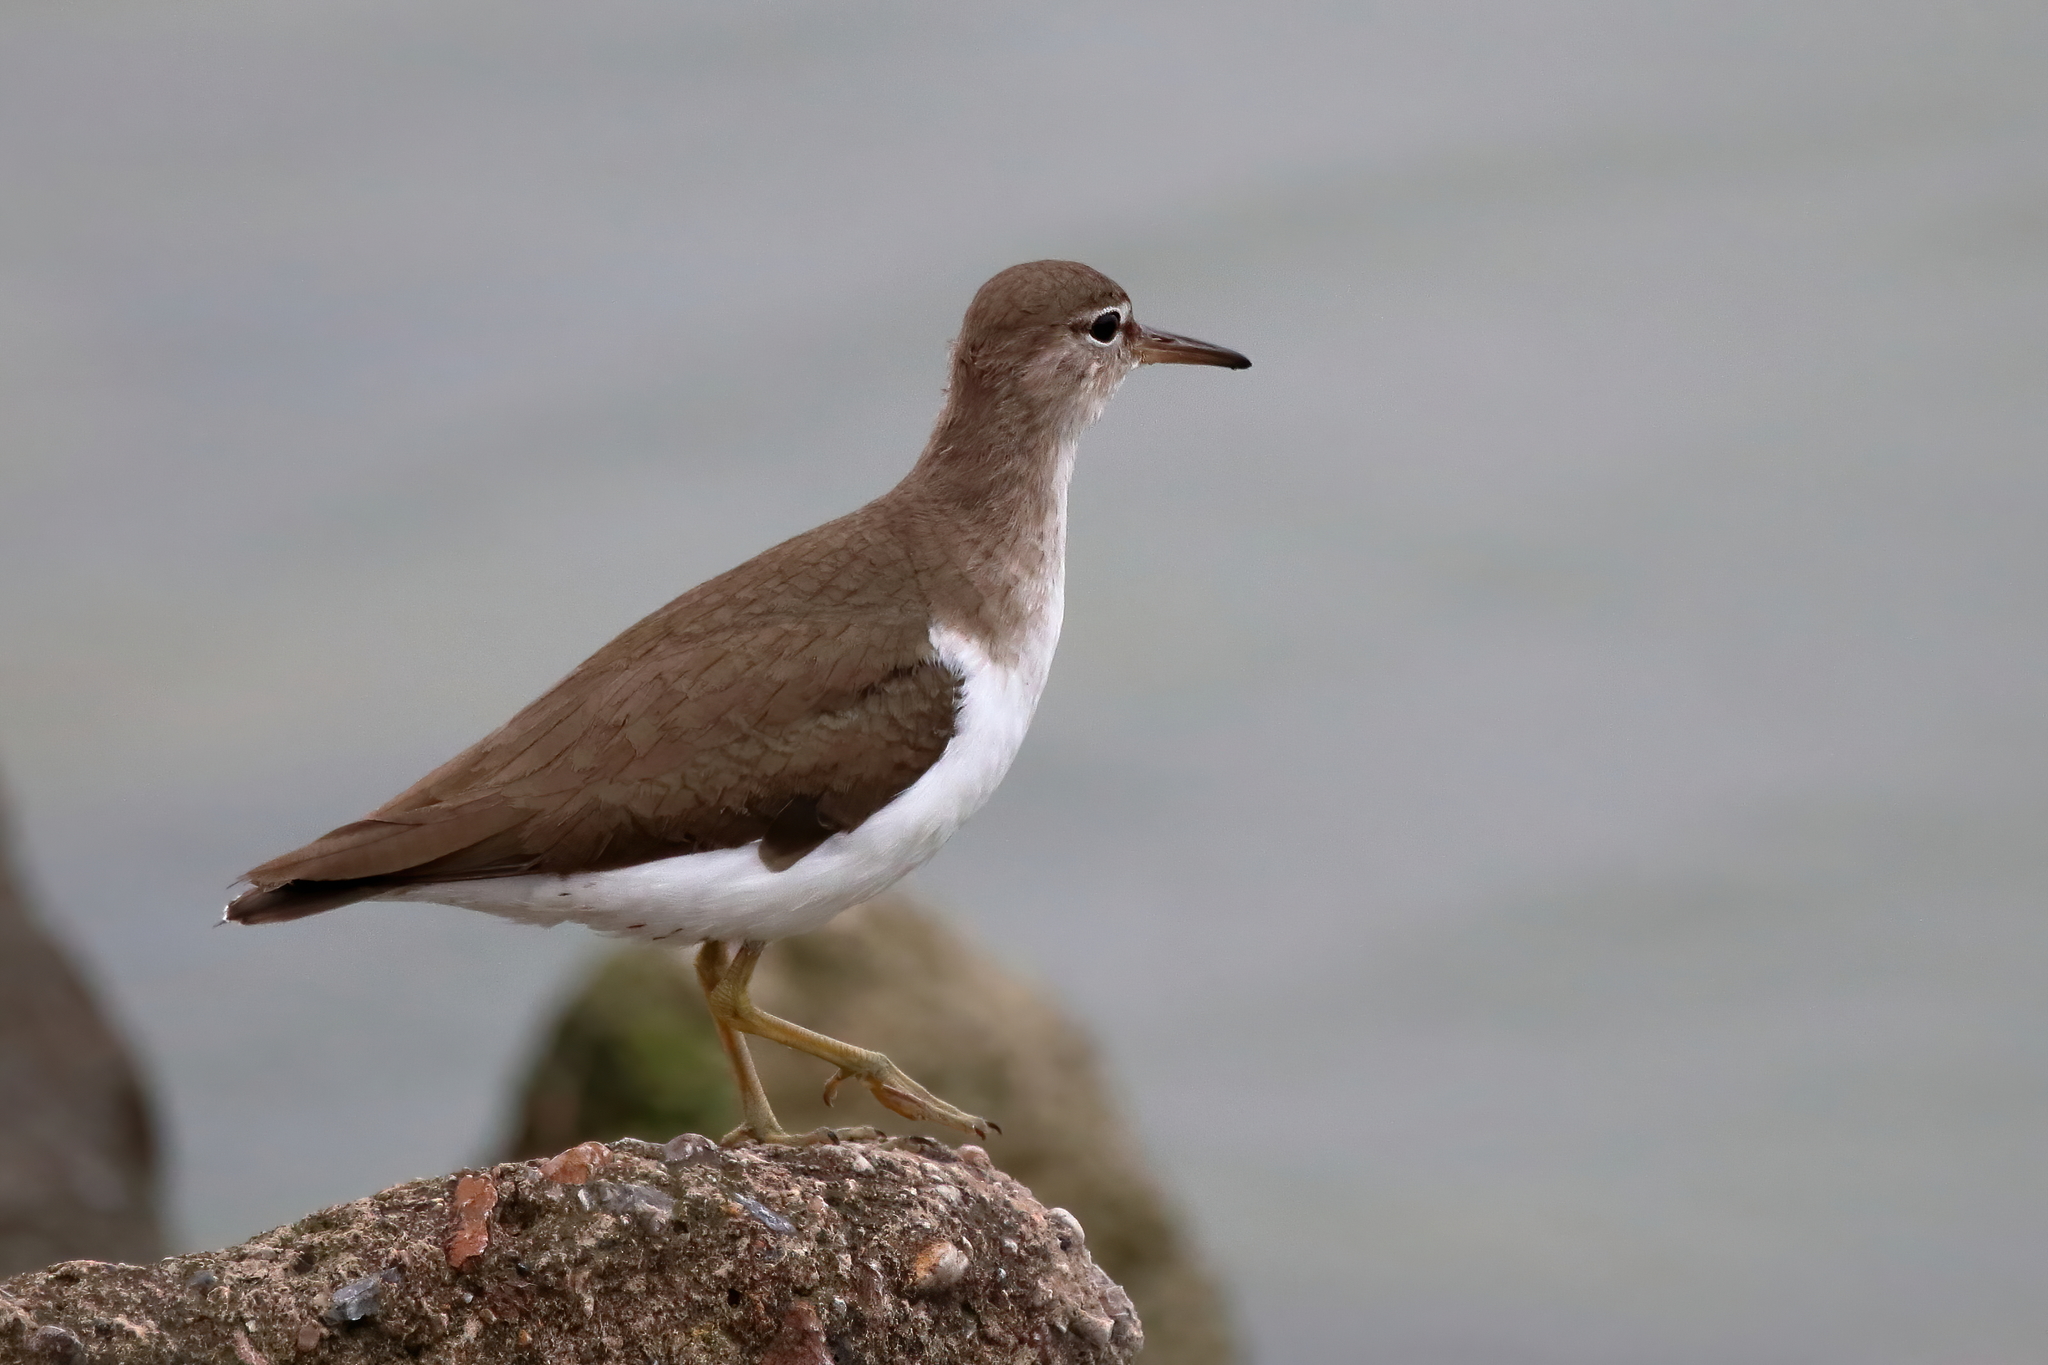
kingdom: Animalia
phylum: Chordata
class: Aves
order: Charadriiformes
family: Scolopacidae
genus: Actitis
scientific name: Actitis macularius
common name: Spotted sandpiper
